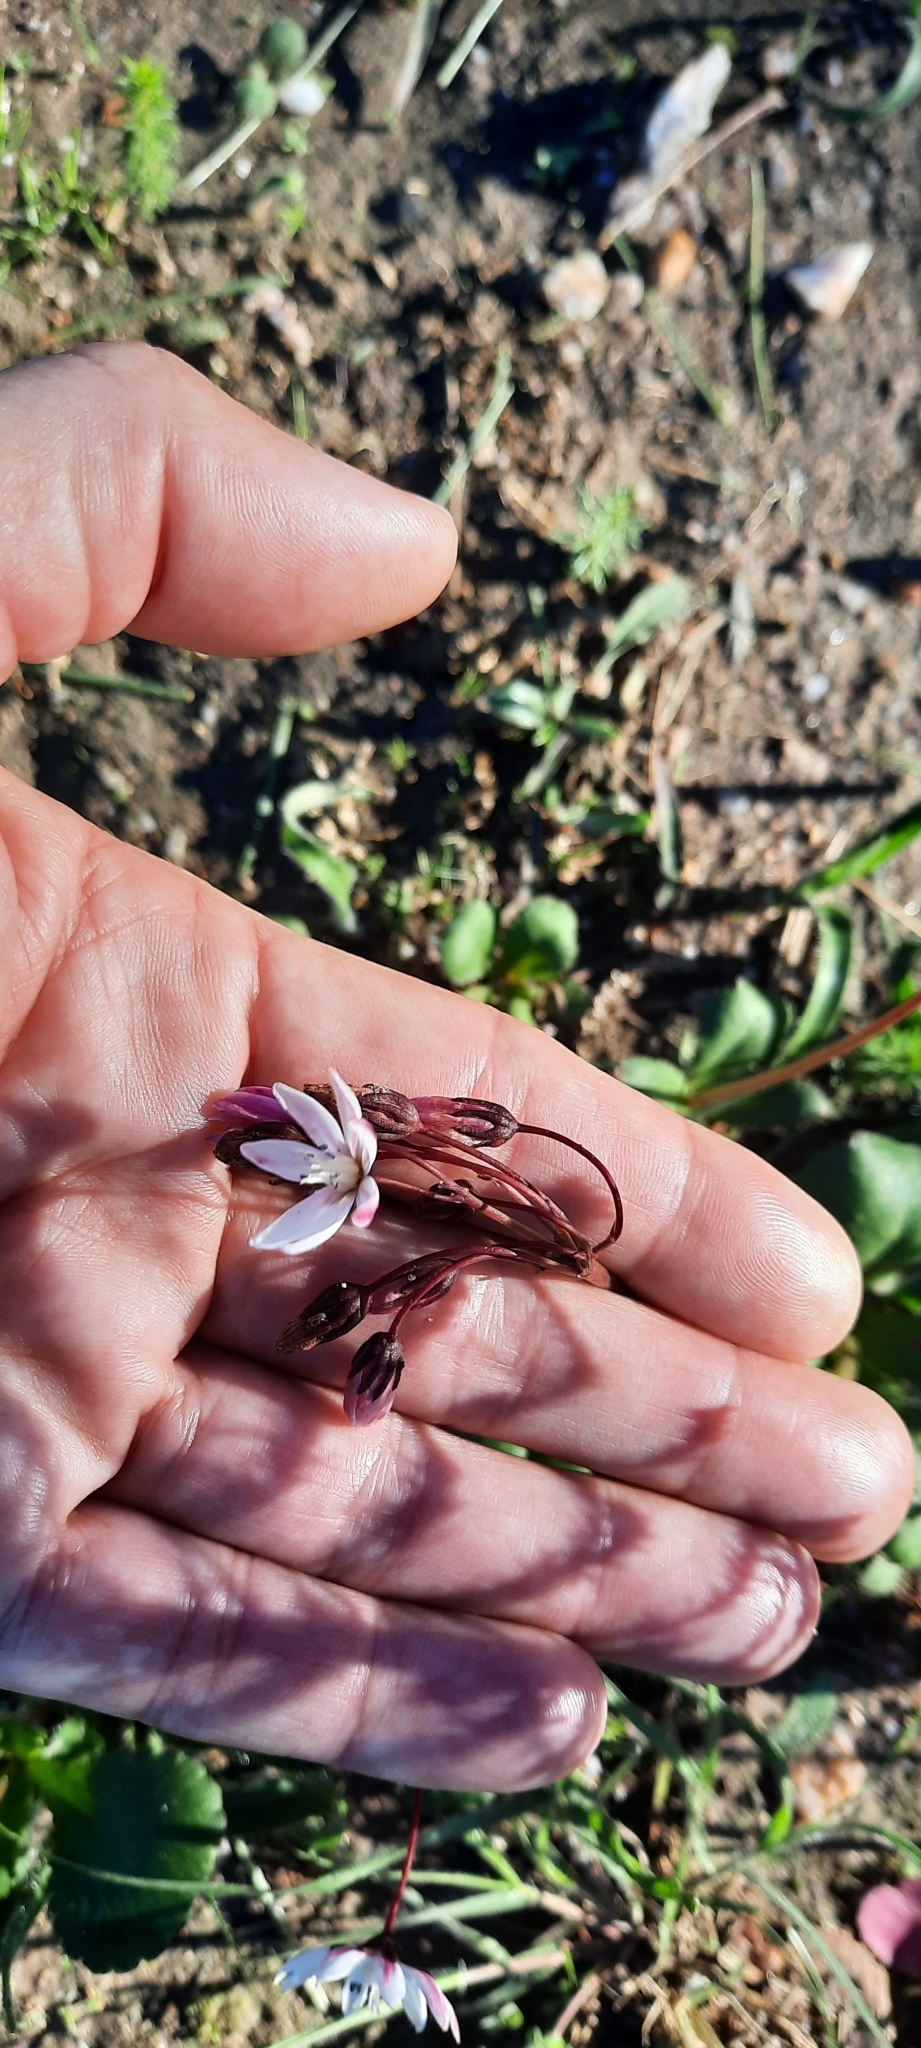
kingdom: Plantae
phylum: Tracheophyta
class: Magnoliopsida
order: Saxifragales
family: Crassulaceae
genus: Crassula
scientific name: Crassula capensis
